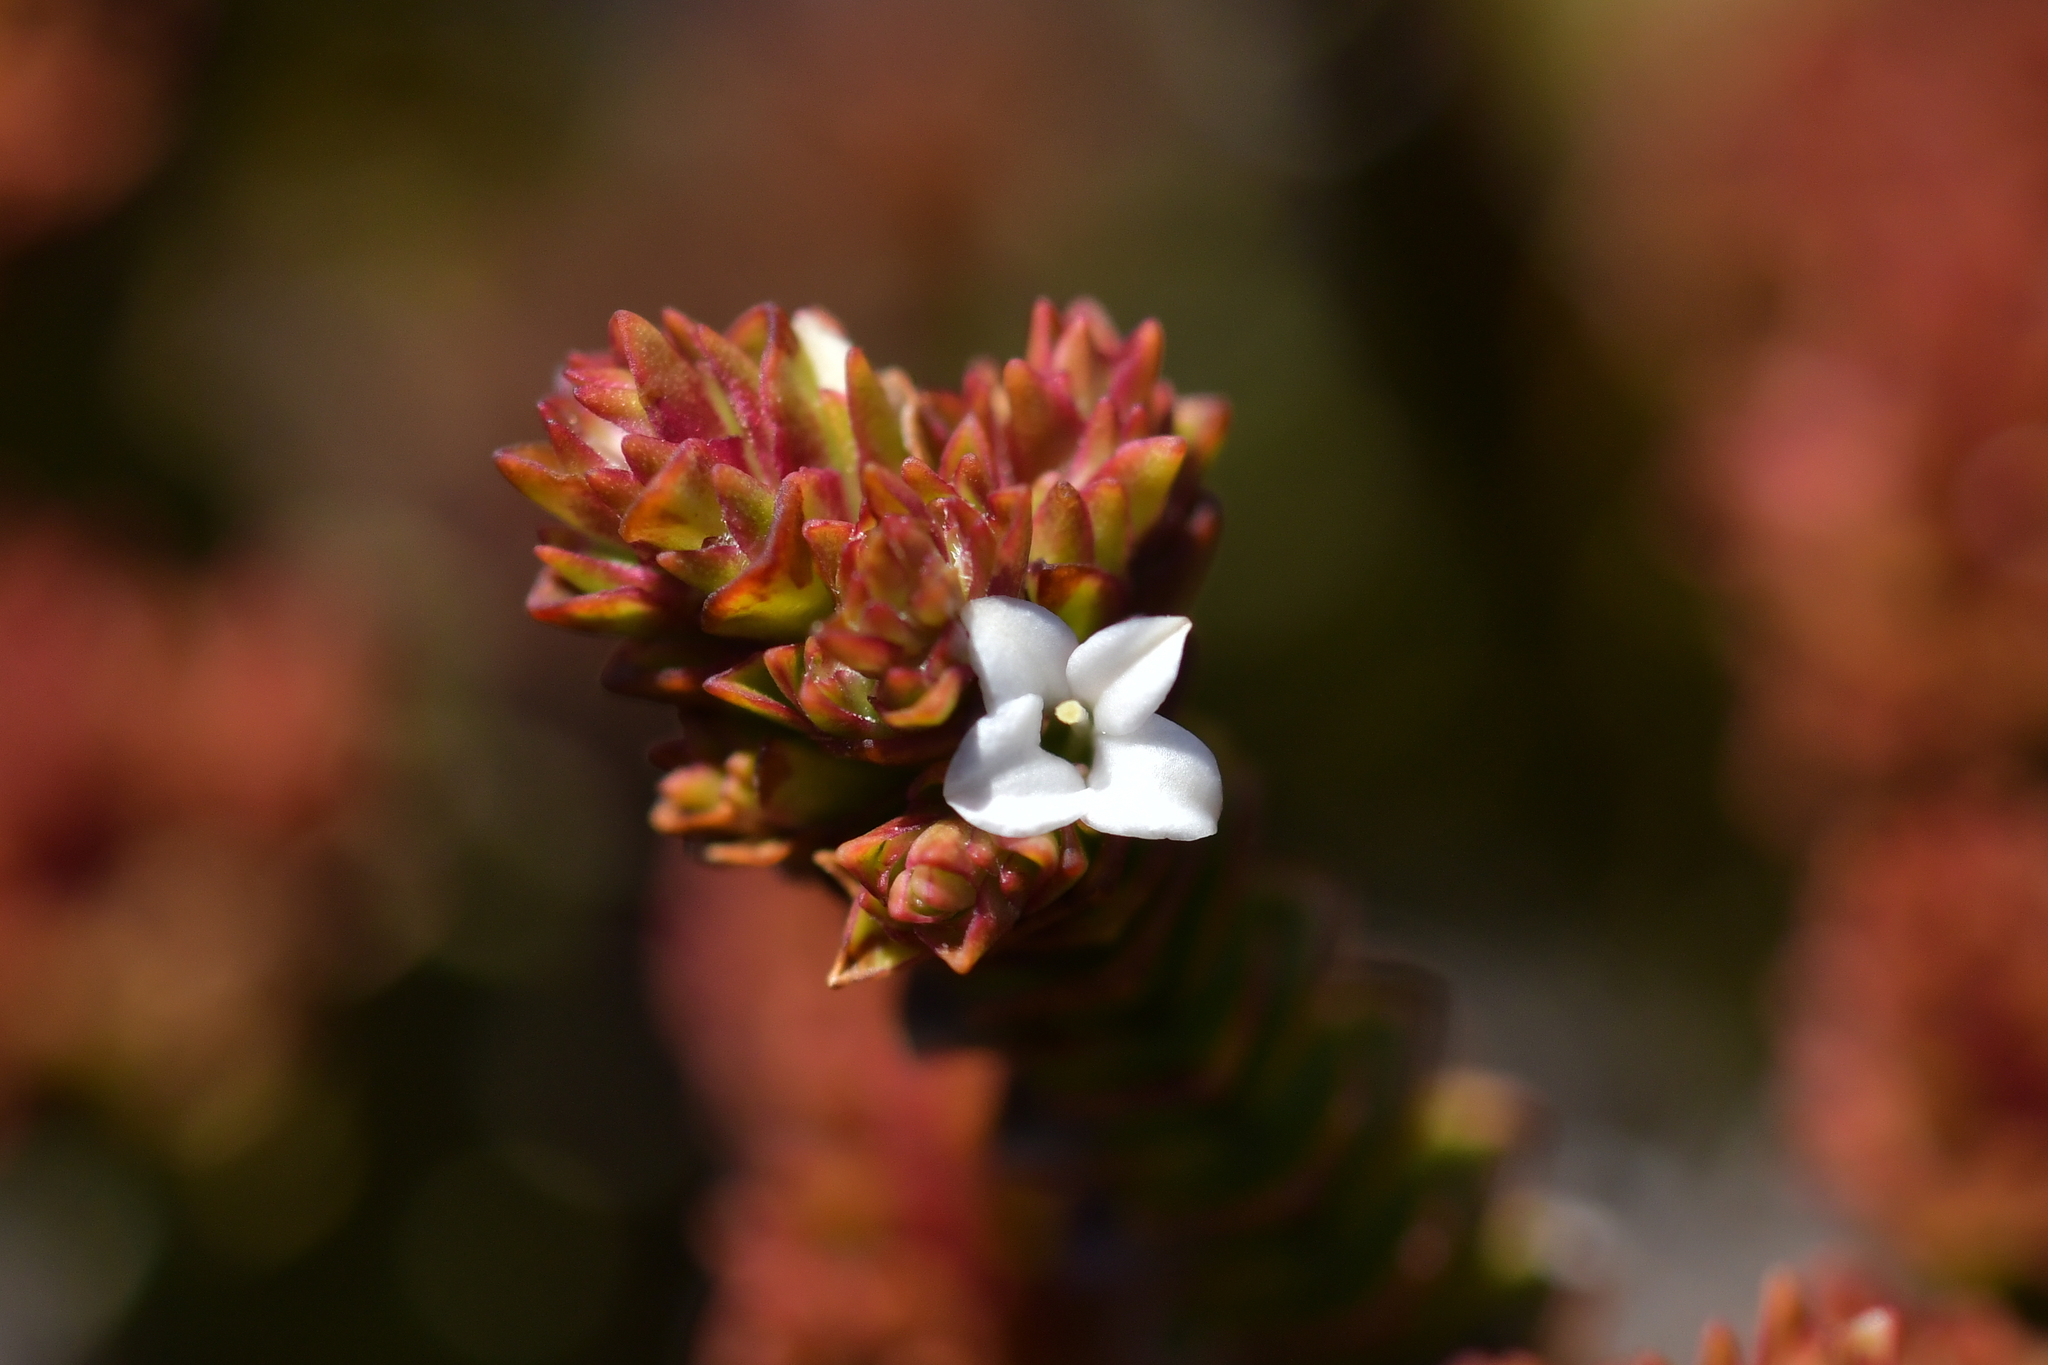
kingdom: Plantae
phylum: Tracheophyta
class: Magnoliopsida
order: Lamiales
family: Plantaginaceae
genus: Veronica
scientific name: Veronica epacridea
